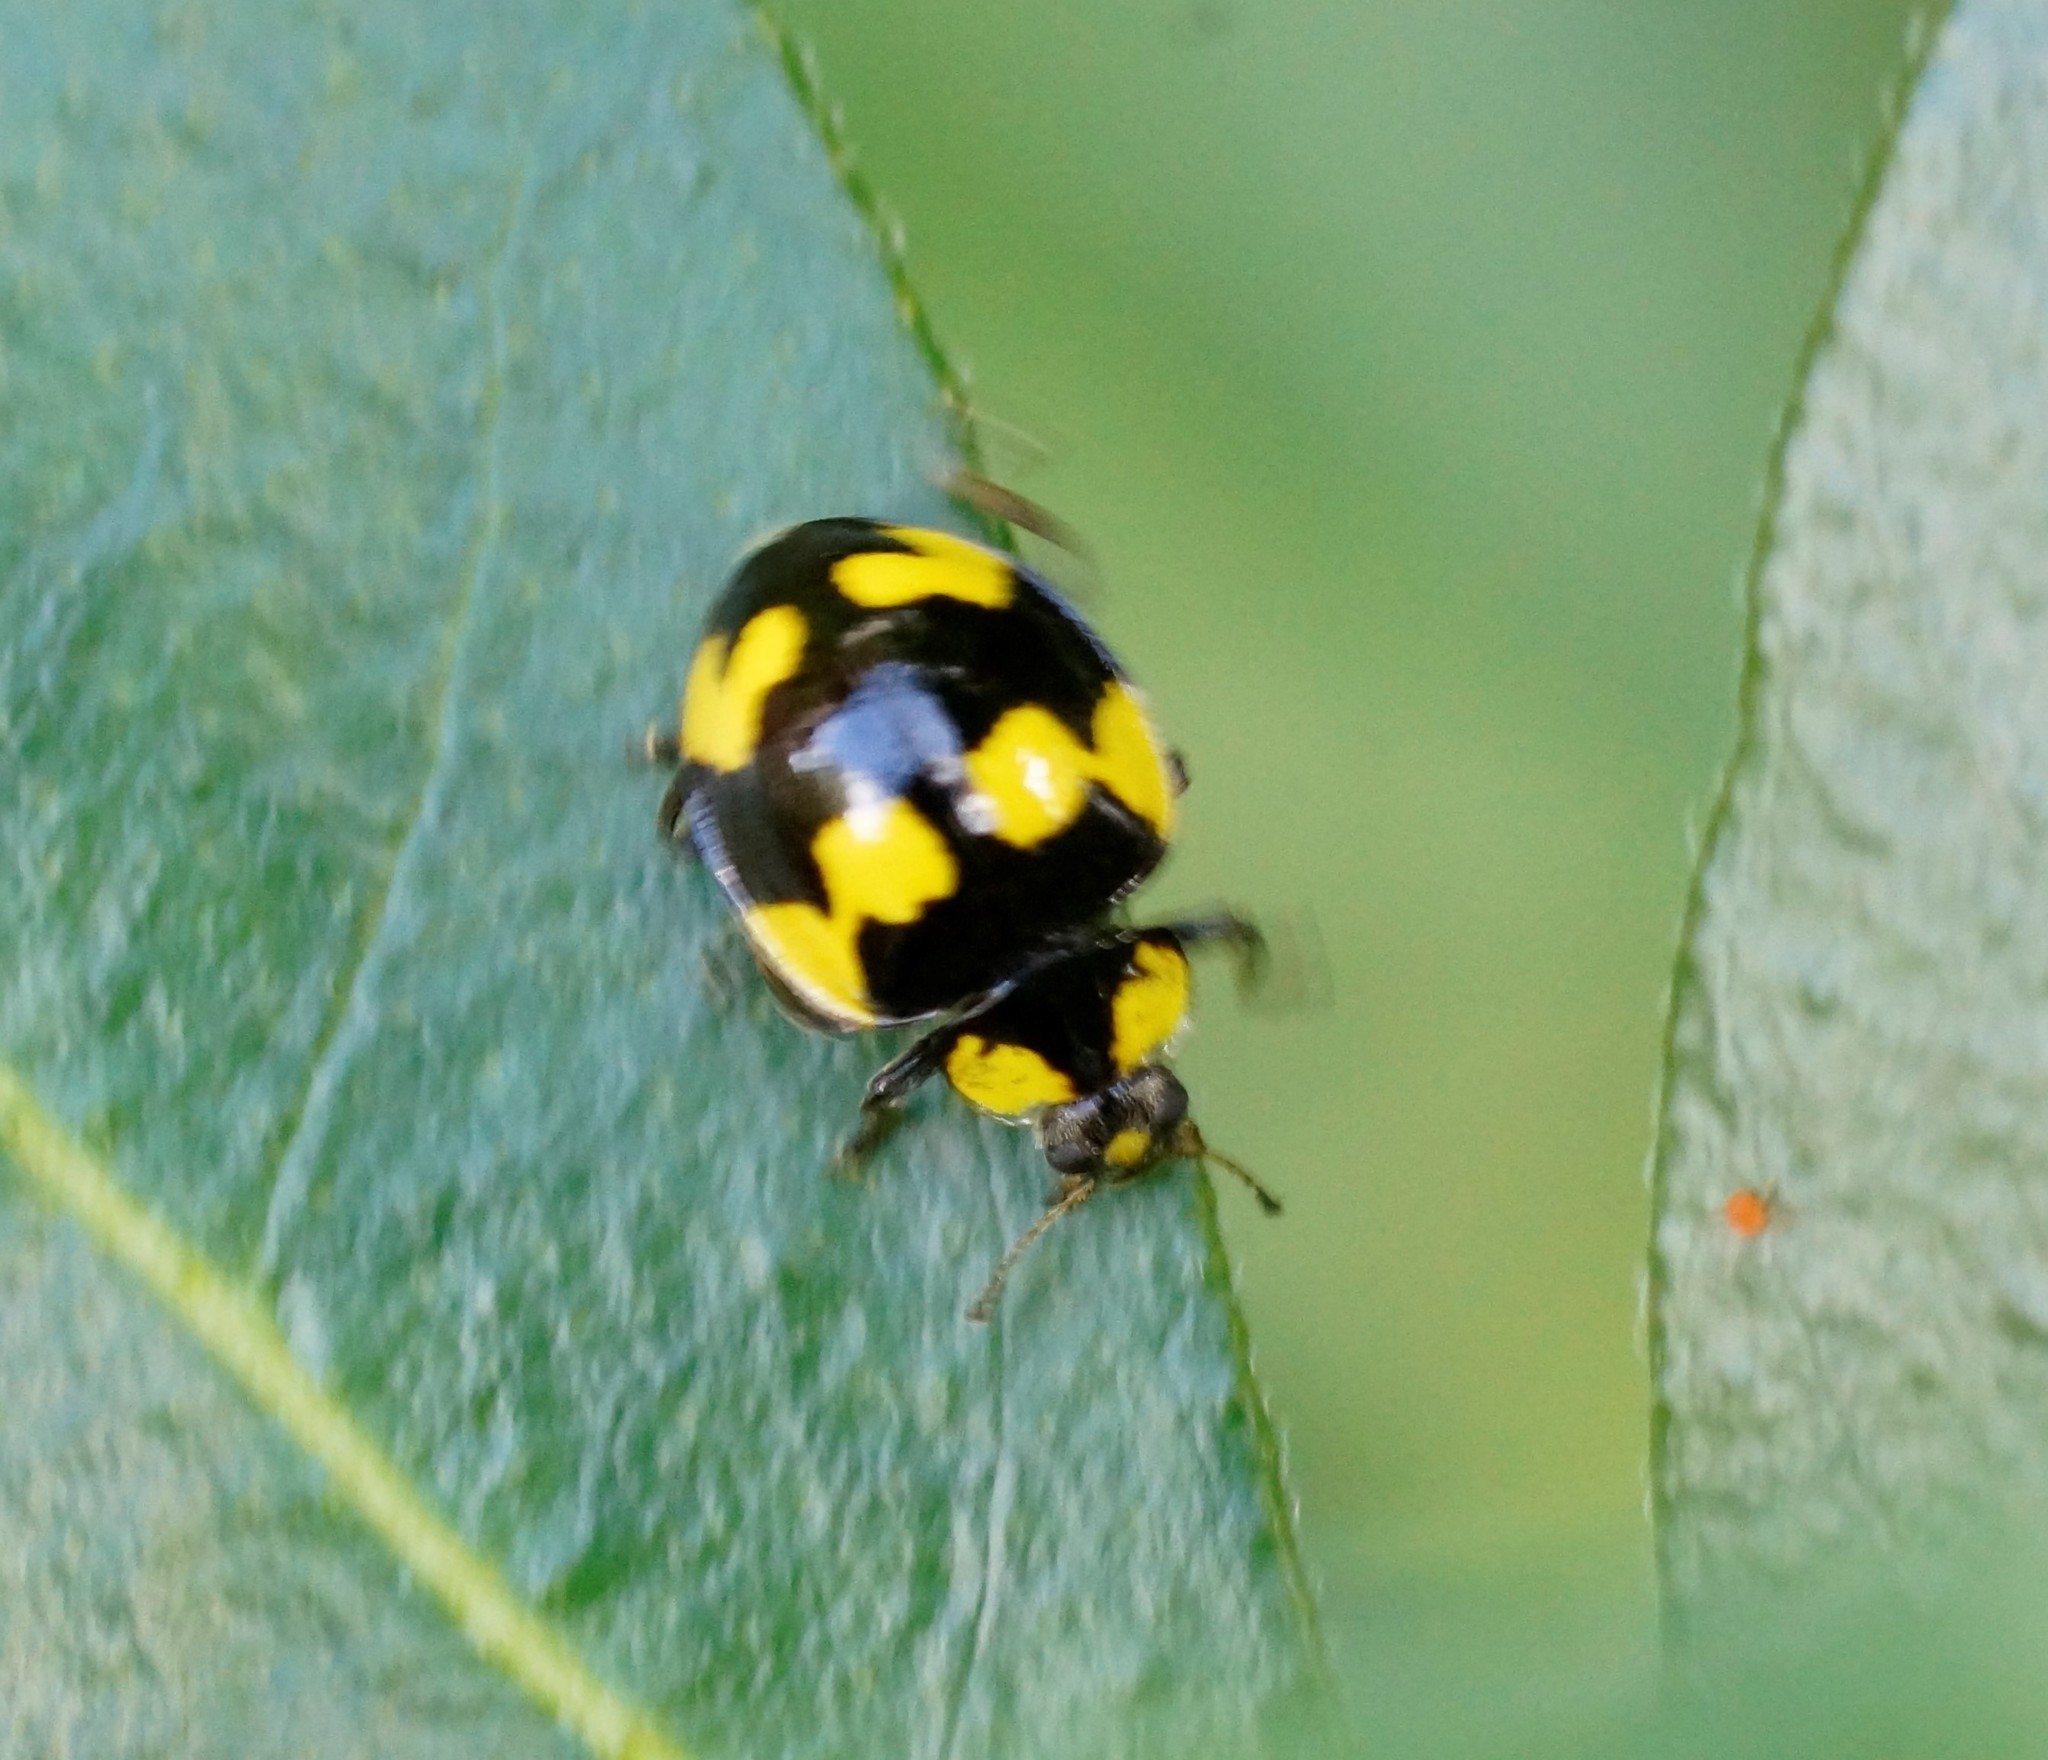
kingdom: Animalia
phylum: Arthropoda
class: Insecta
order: Coleoptera
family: Coccinellidae
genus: Illeis
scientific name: Illeis galbula
